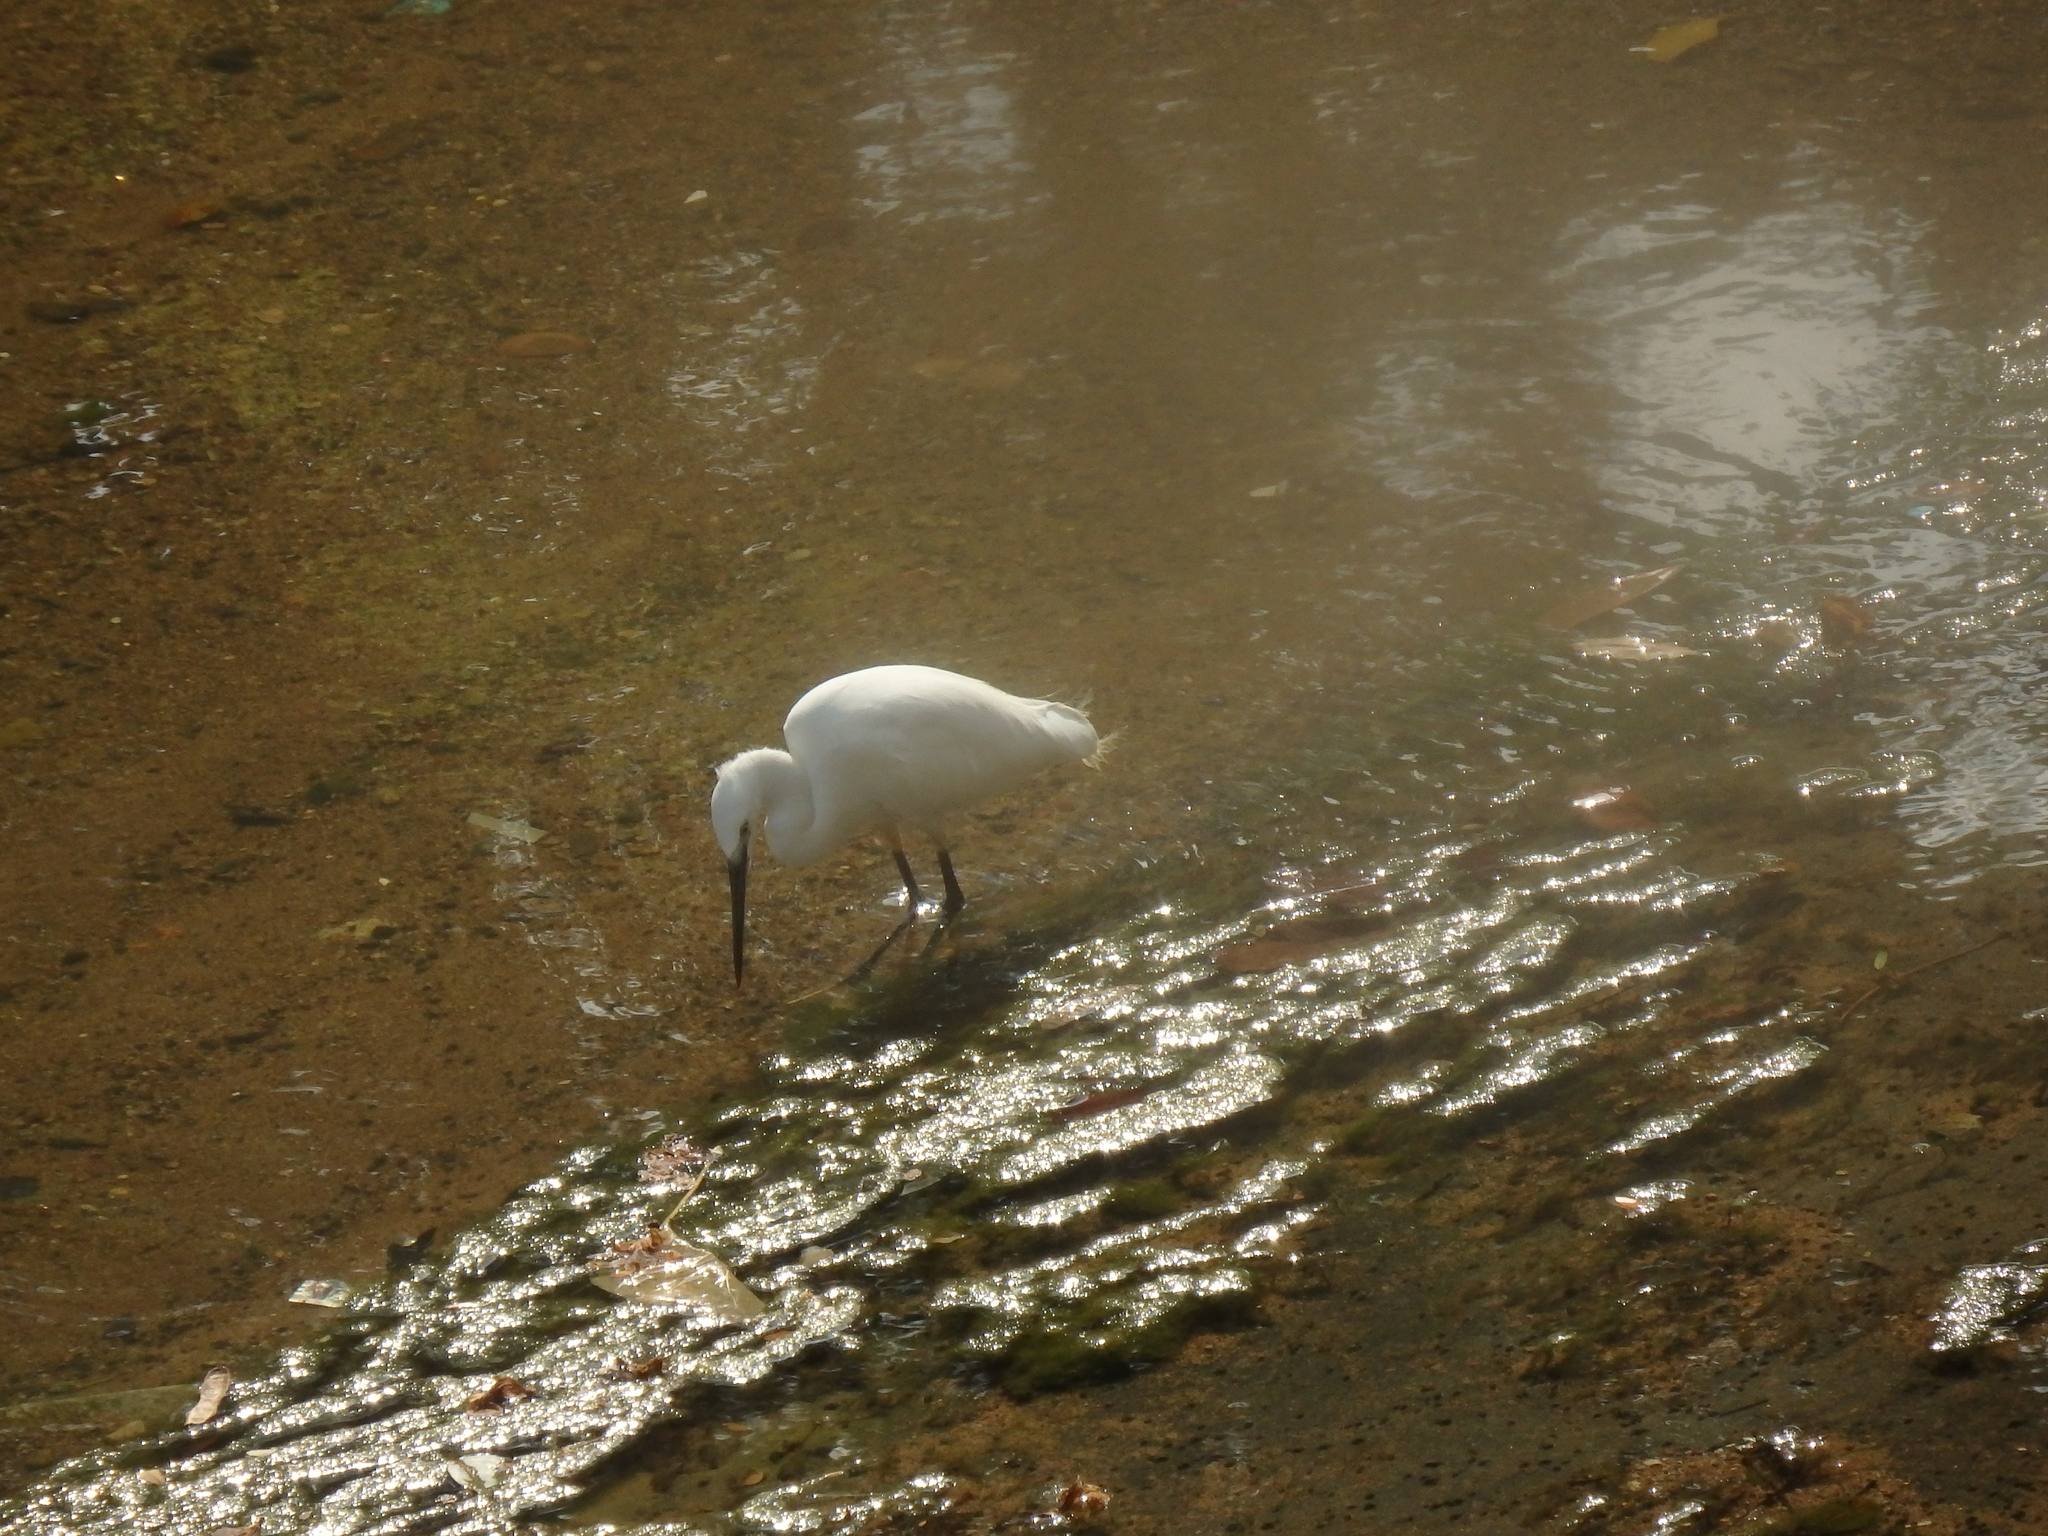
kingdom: Animalia
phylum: Chordata
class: Aves
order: Pelecaniformes
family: Ardeidae
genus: Egretta
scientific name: Egretta garzetta
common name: Little egret
